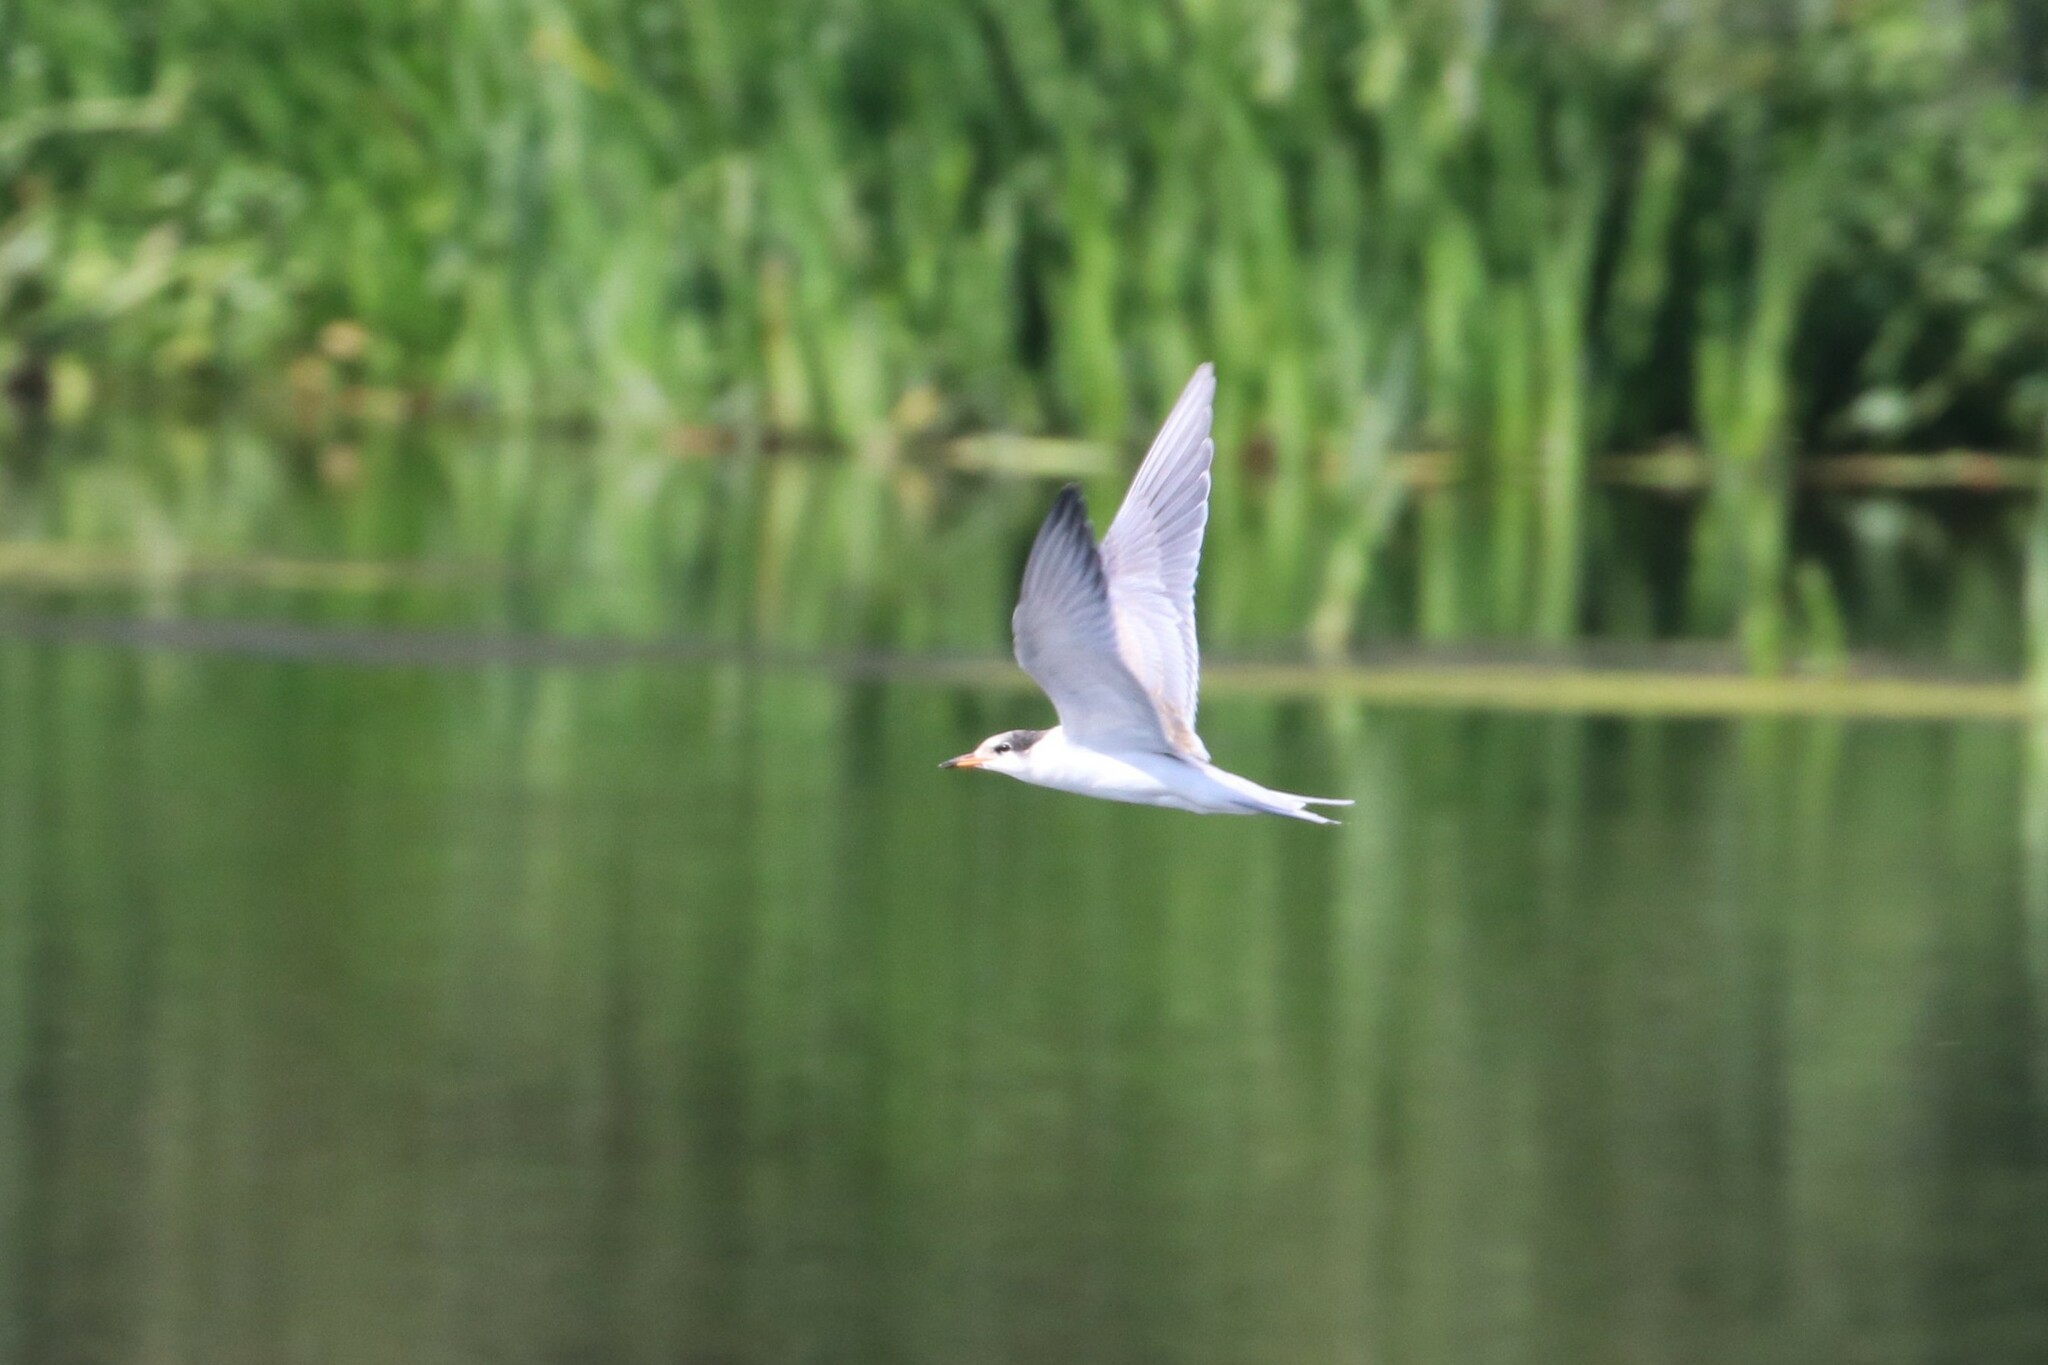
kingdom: Animalia
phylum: Chordata
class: Aves
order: Charadriiformes
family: Laridae
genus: Sterna
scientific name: Sterna hirundo
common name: Common tern
